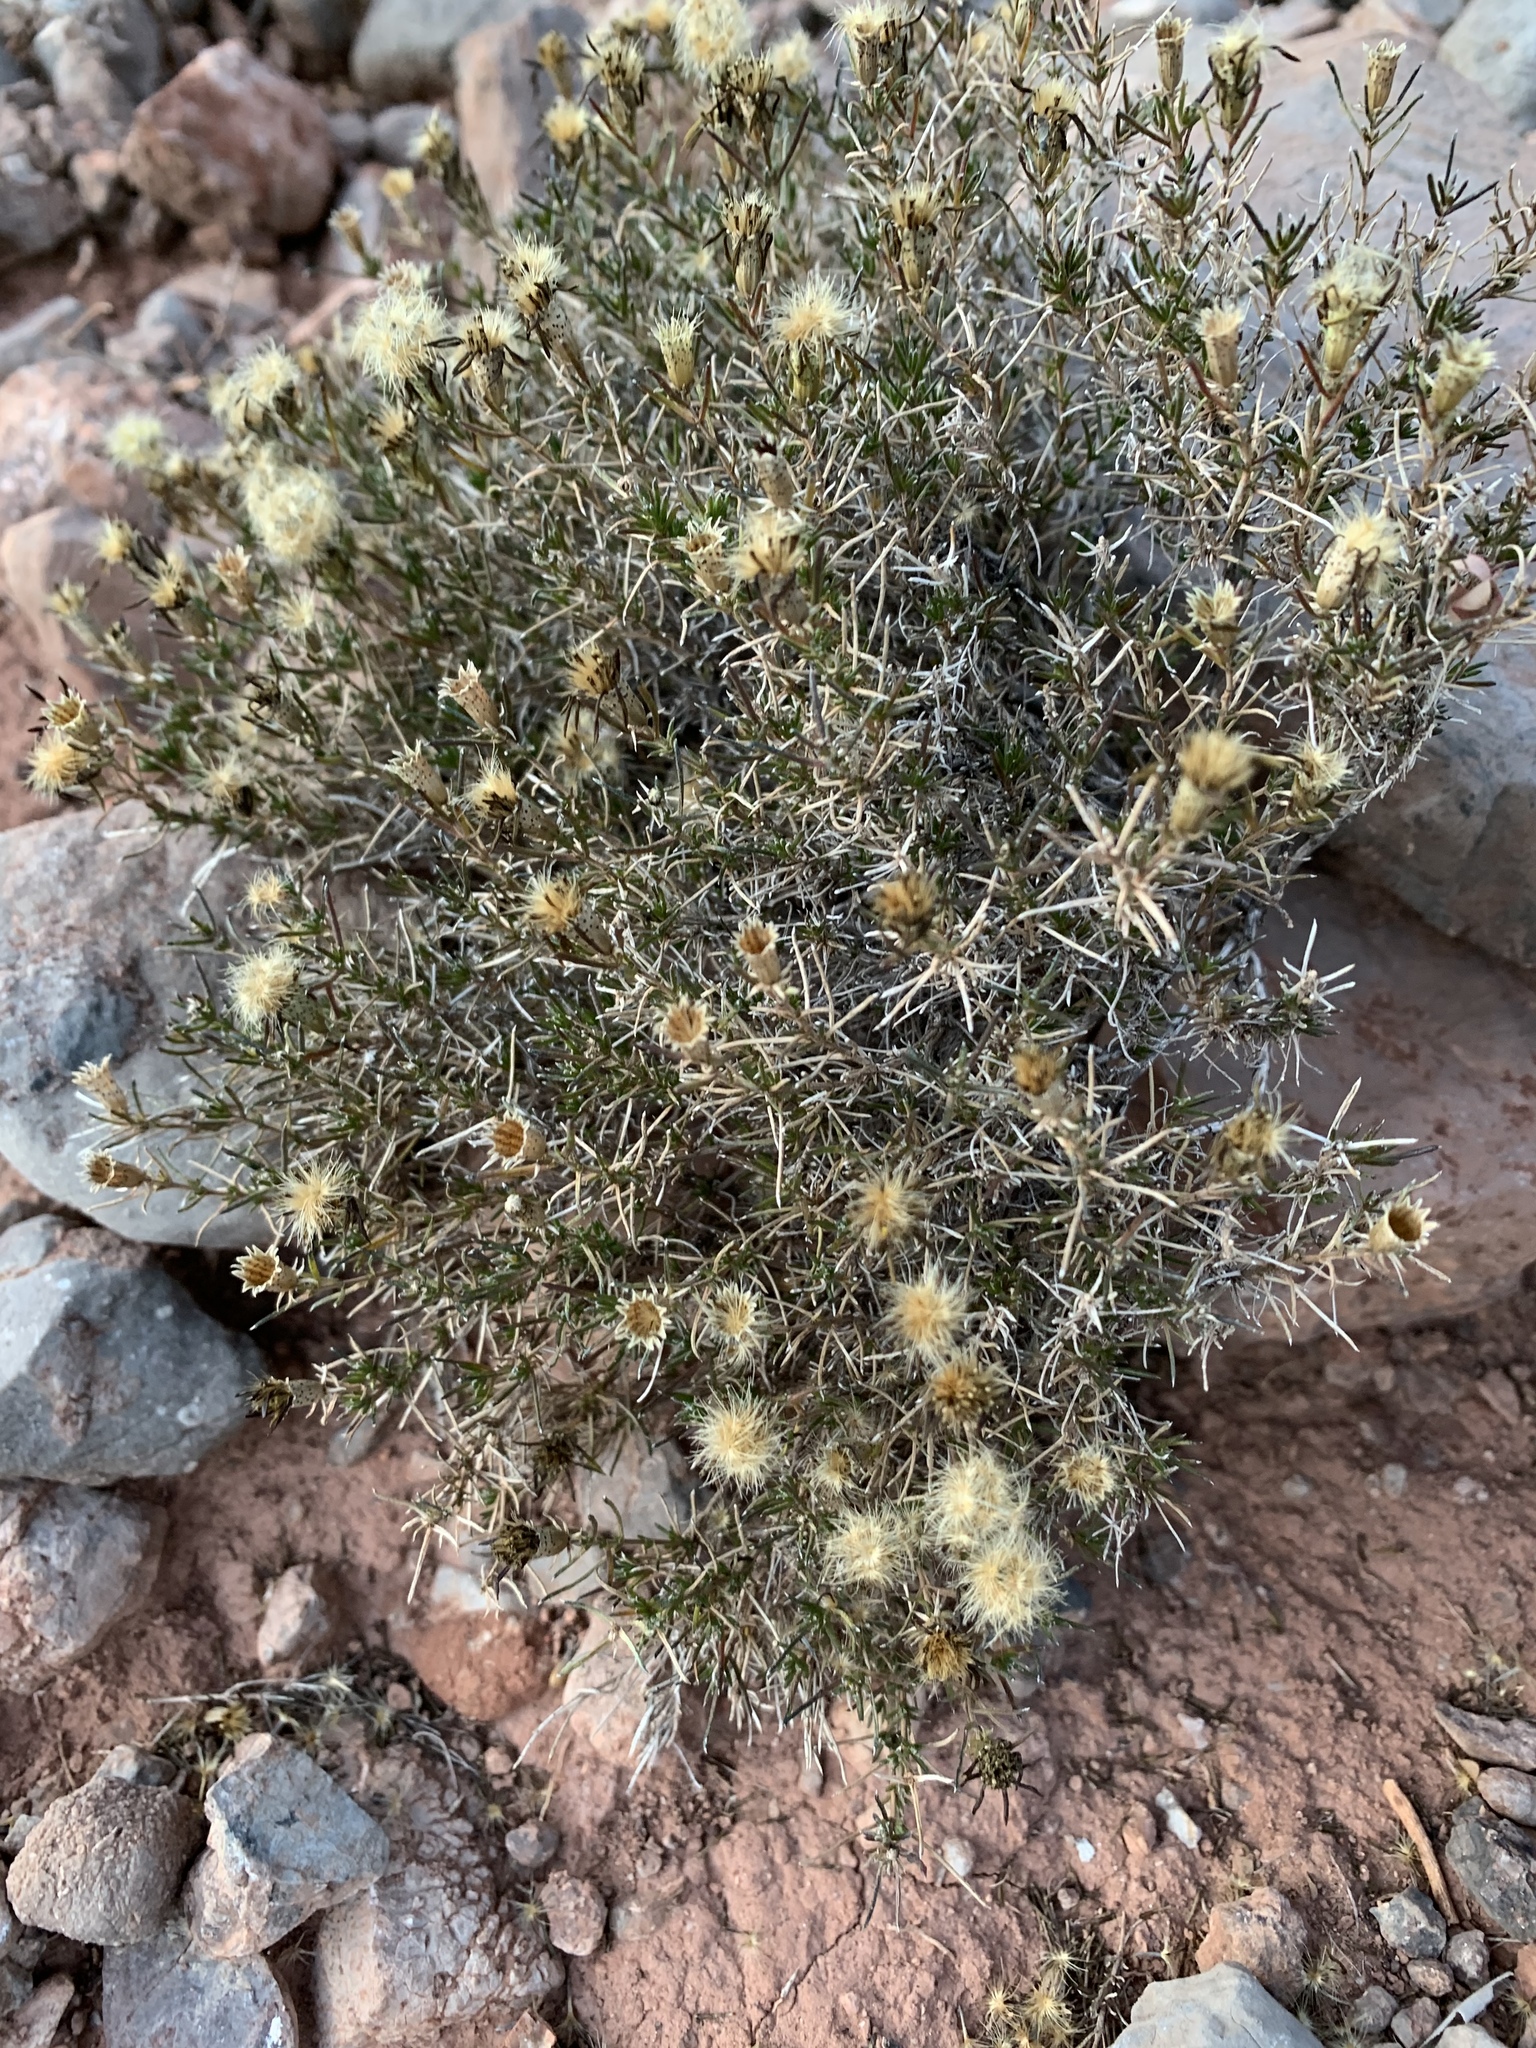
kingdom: Plantae
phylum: Tracheophyta
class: Magnoliopsida
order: Asterales
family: Asteraceae
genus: Thymophylla
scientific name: Thymophylla acerosa
